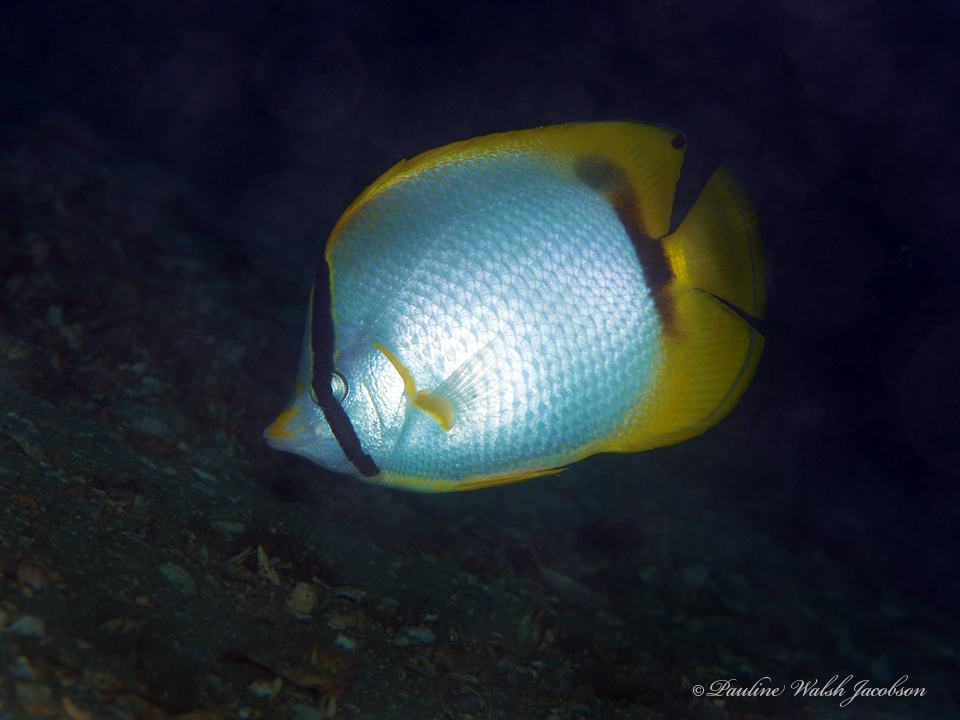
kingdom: Animalia
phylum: Chordata
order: Perciformes
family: Chaetodontidae
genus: Chaetodon
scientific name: Chaetodon ocellatus
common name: Spotfin butterflyfish
